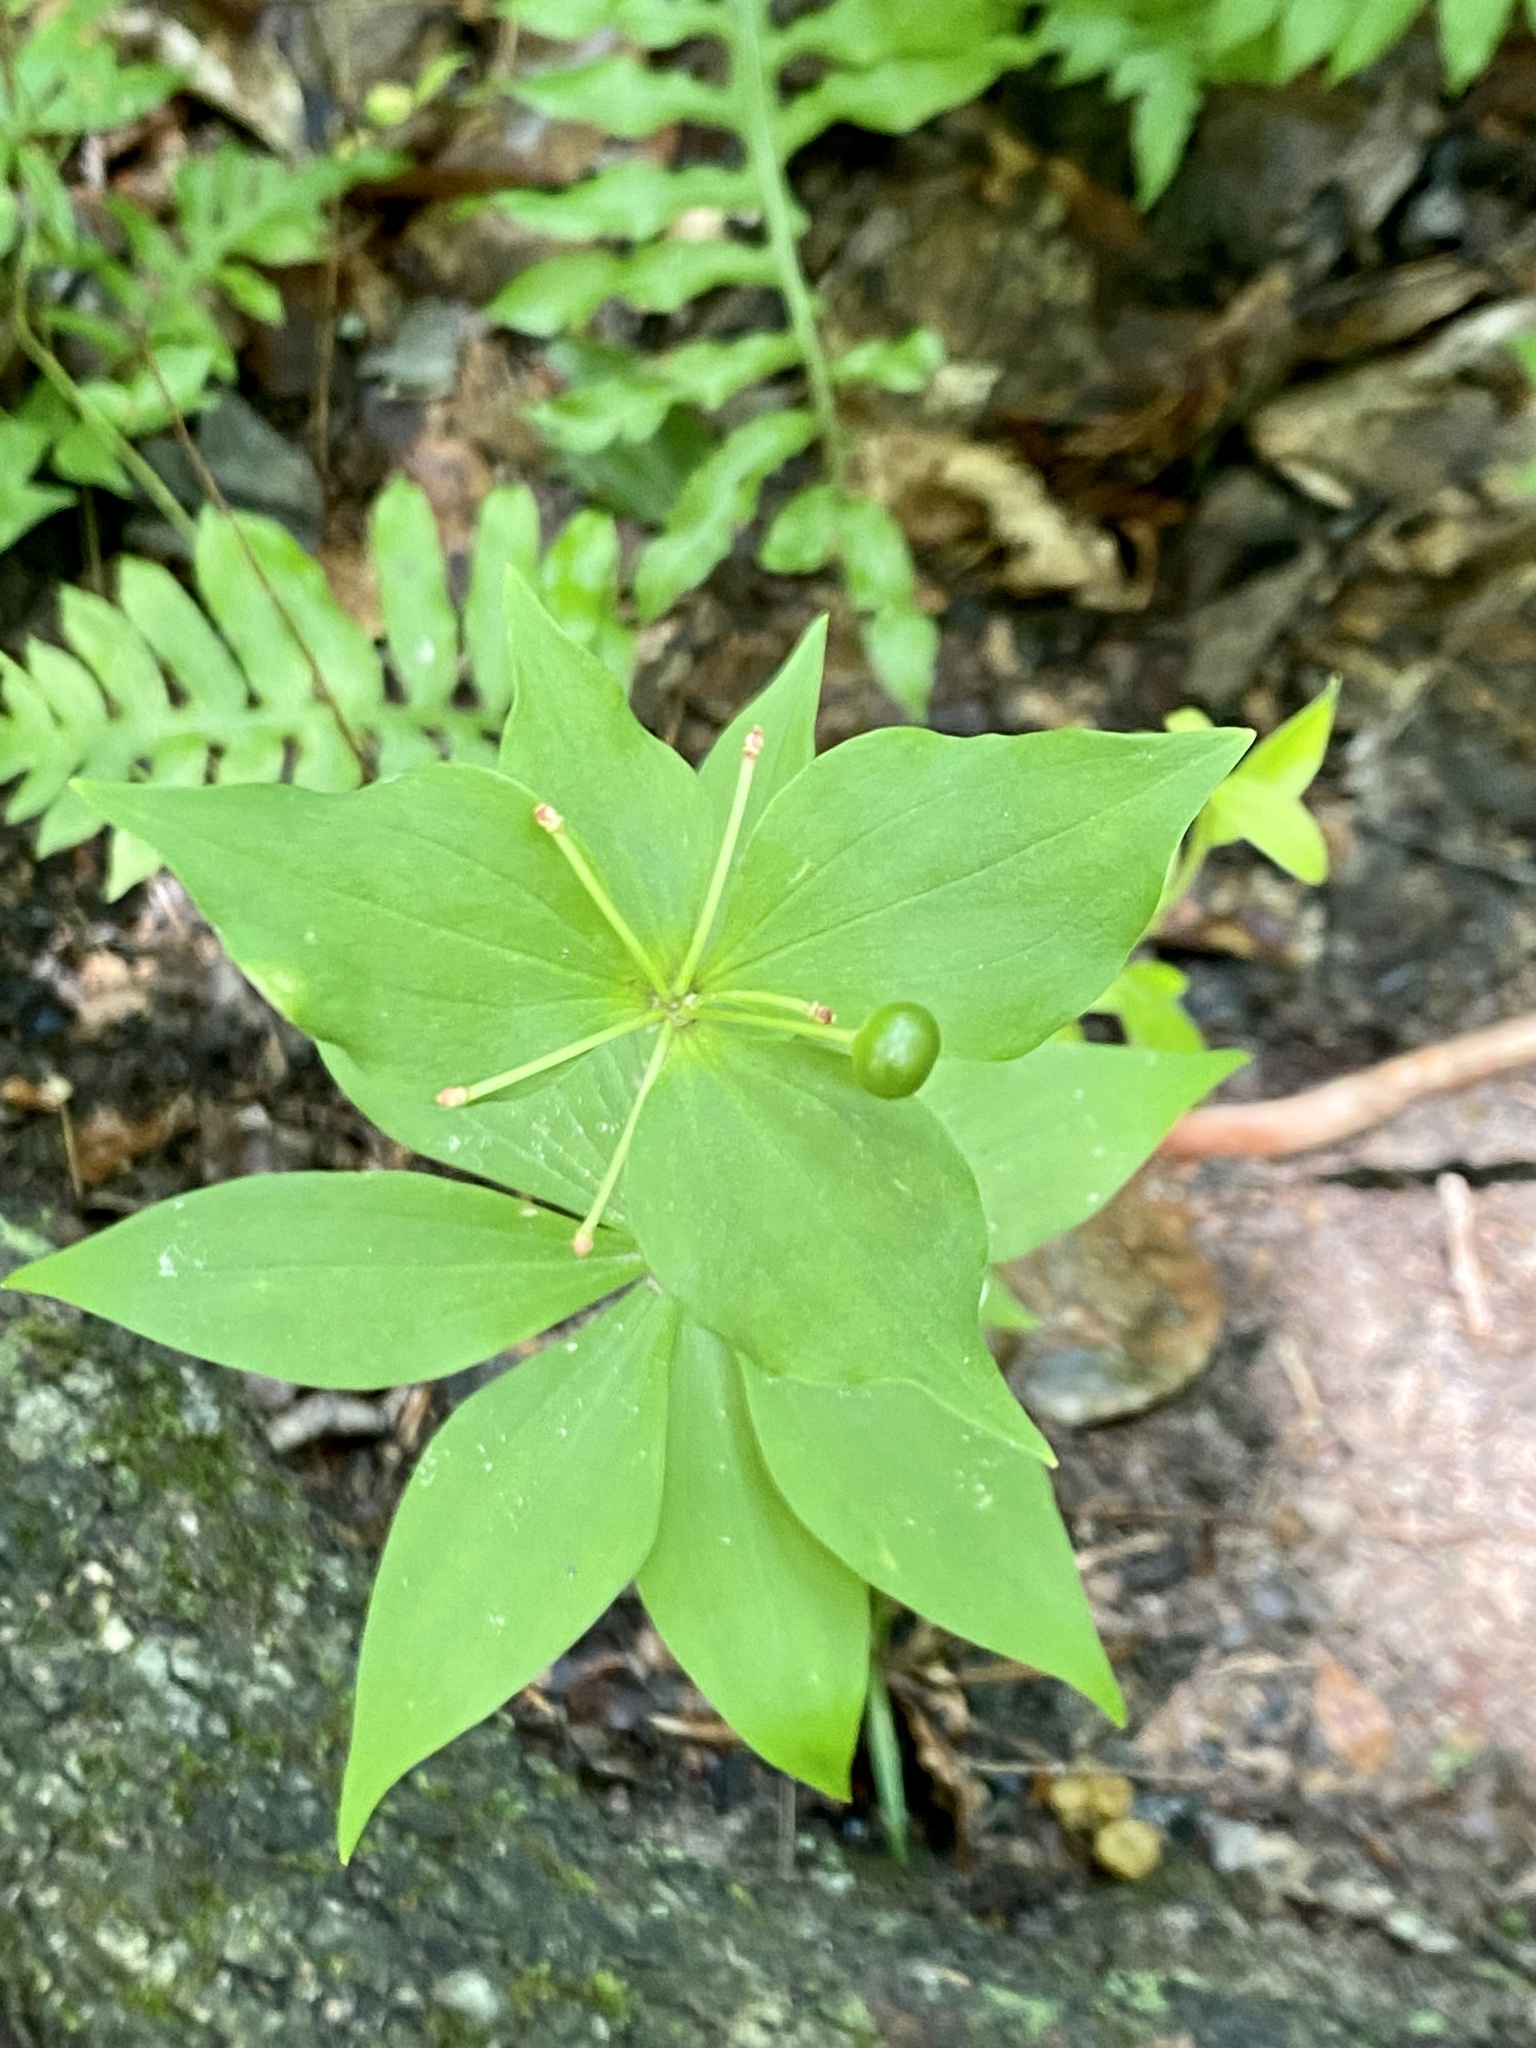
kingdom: Plantae
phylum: Tracheophyta
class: Liliopsida
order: Liliales
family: Liliaceae
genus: Medeola
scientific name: Medeola virginiana
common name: Indian cucumber-root
